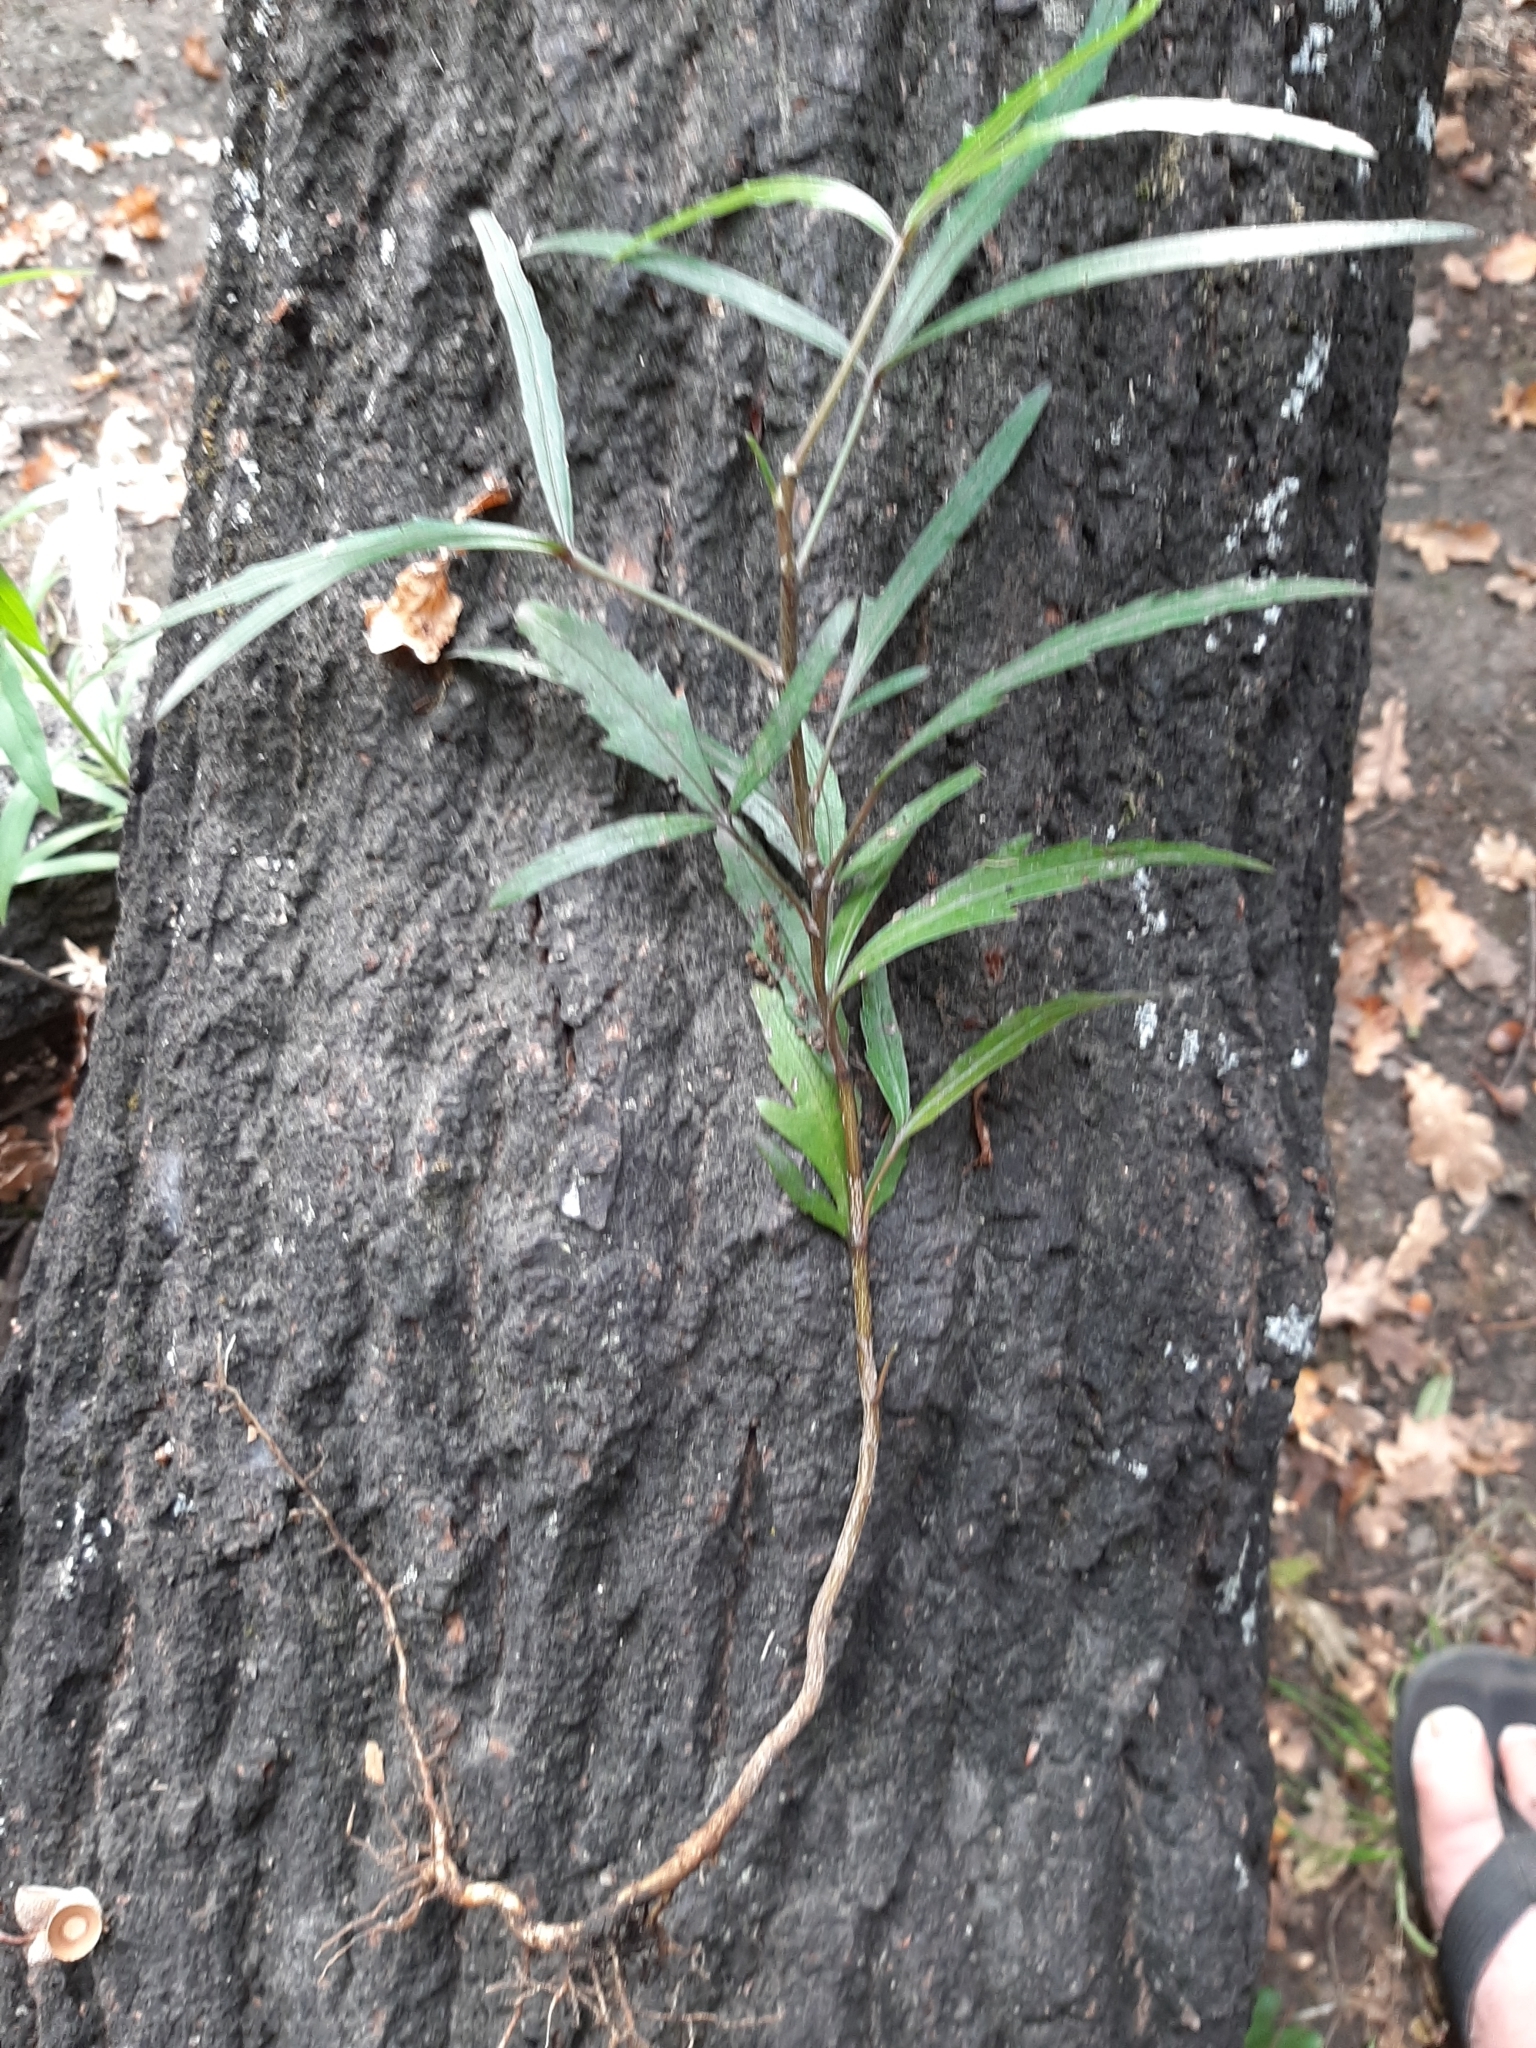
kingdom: Plantae
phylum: Tracheophyta
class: Magnoliopsida
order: Apiales
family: Araliaceae
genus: Pseudopanax
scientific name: Pseudopanax
